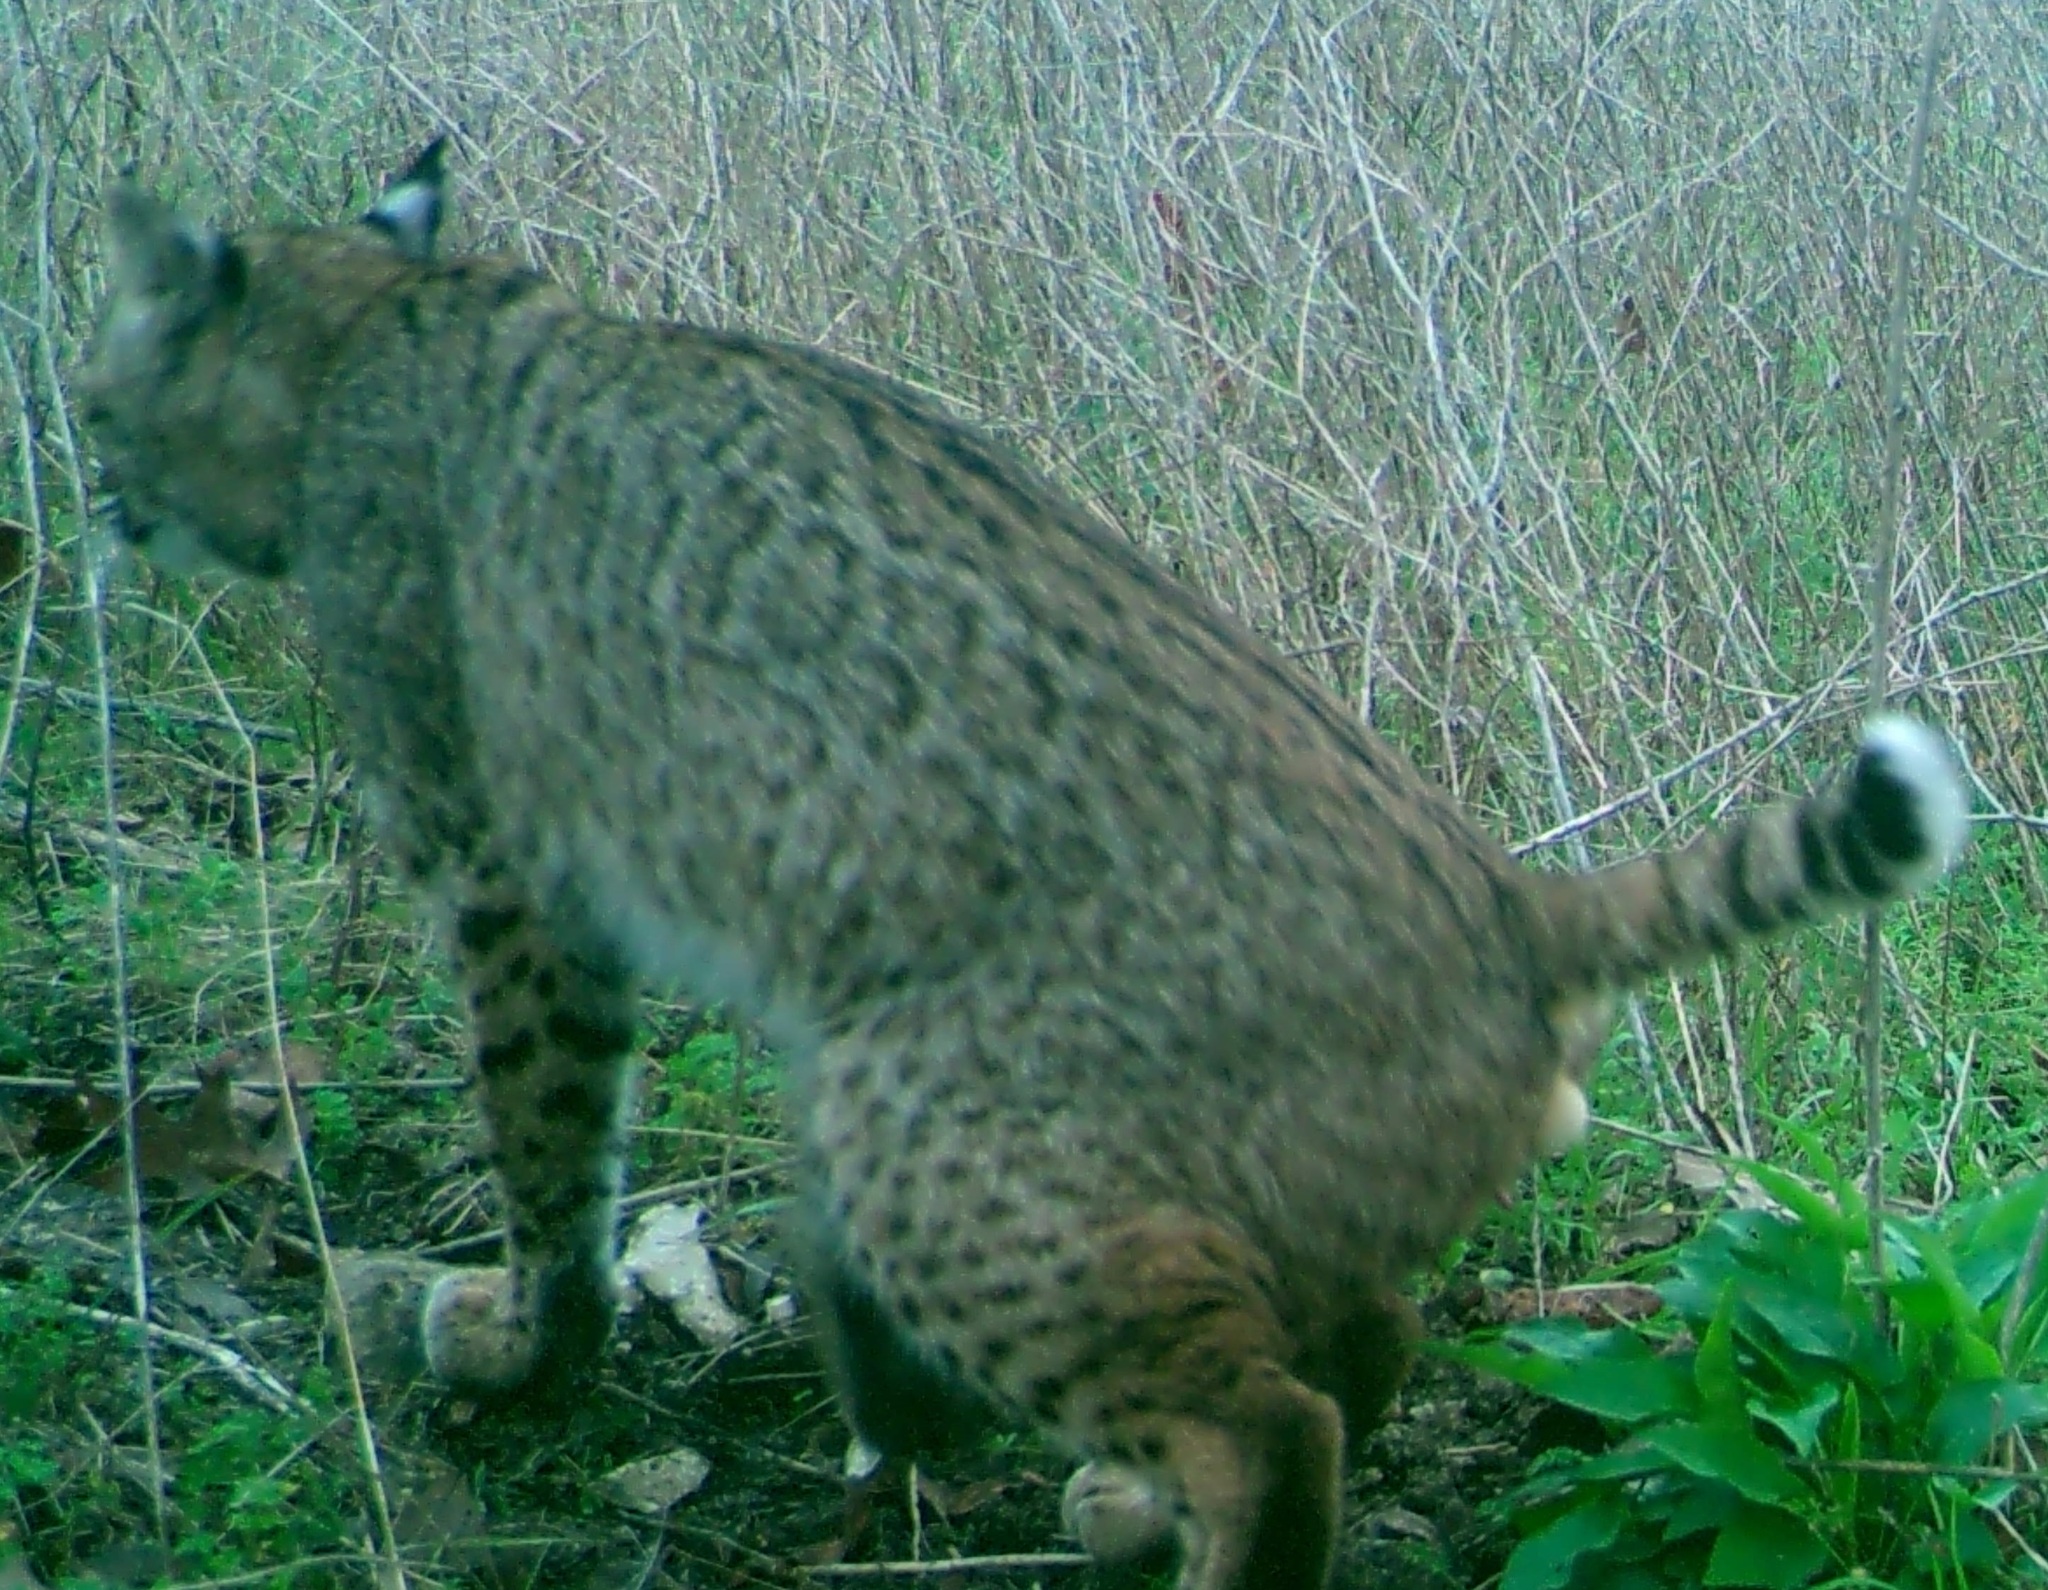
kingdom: Animalia
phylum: Chordata
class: Mammalia
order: Carnivora
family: Felidae
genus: Lynx
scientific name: Lynx rufus
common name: Bobcat
